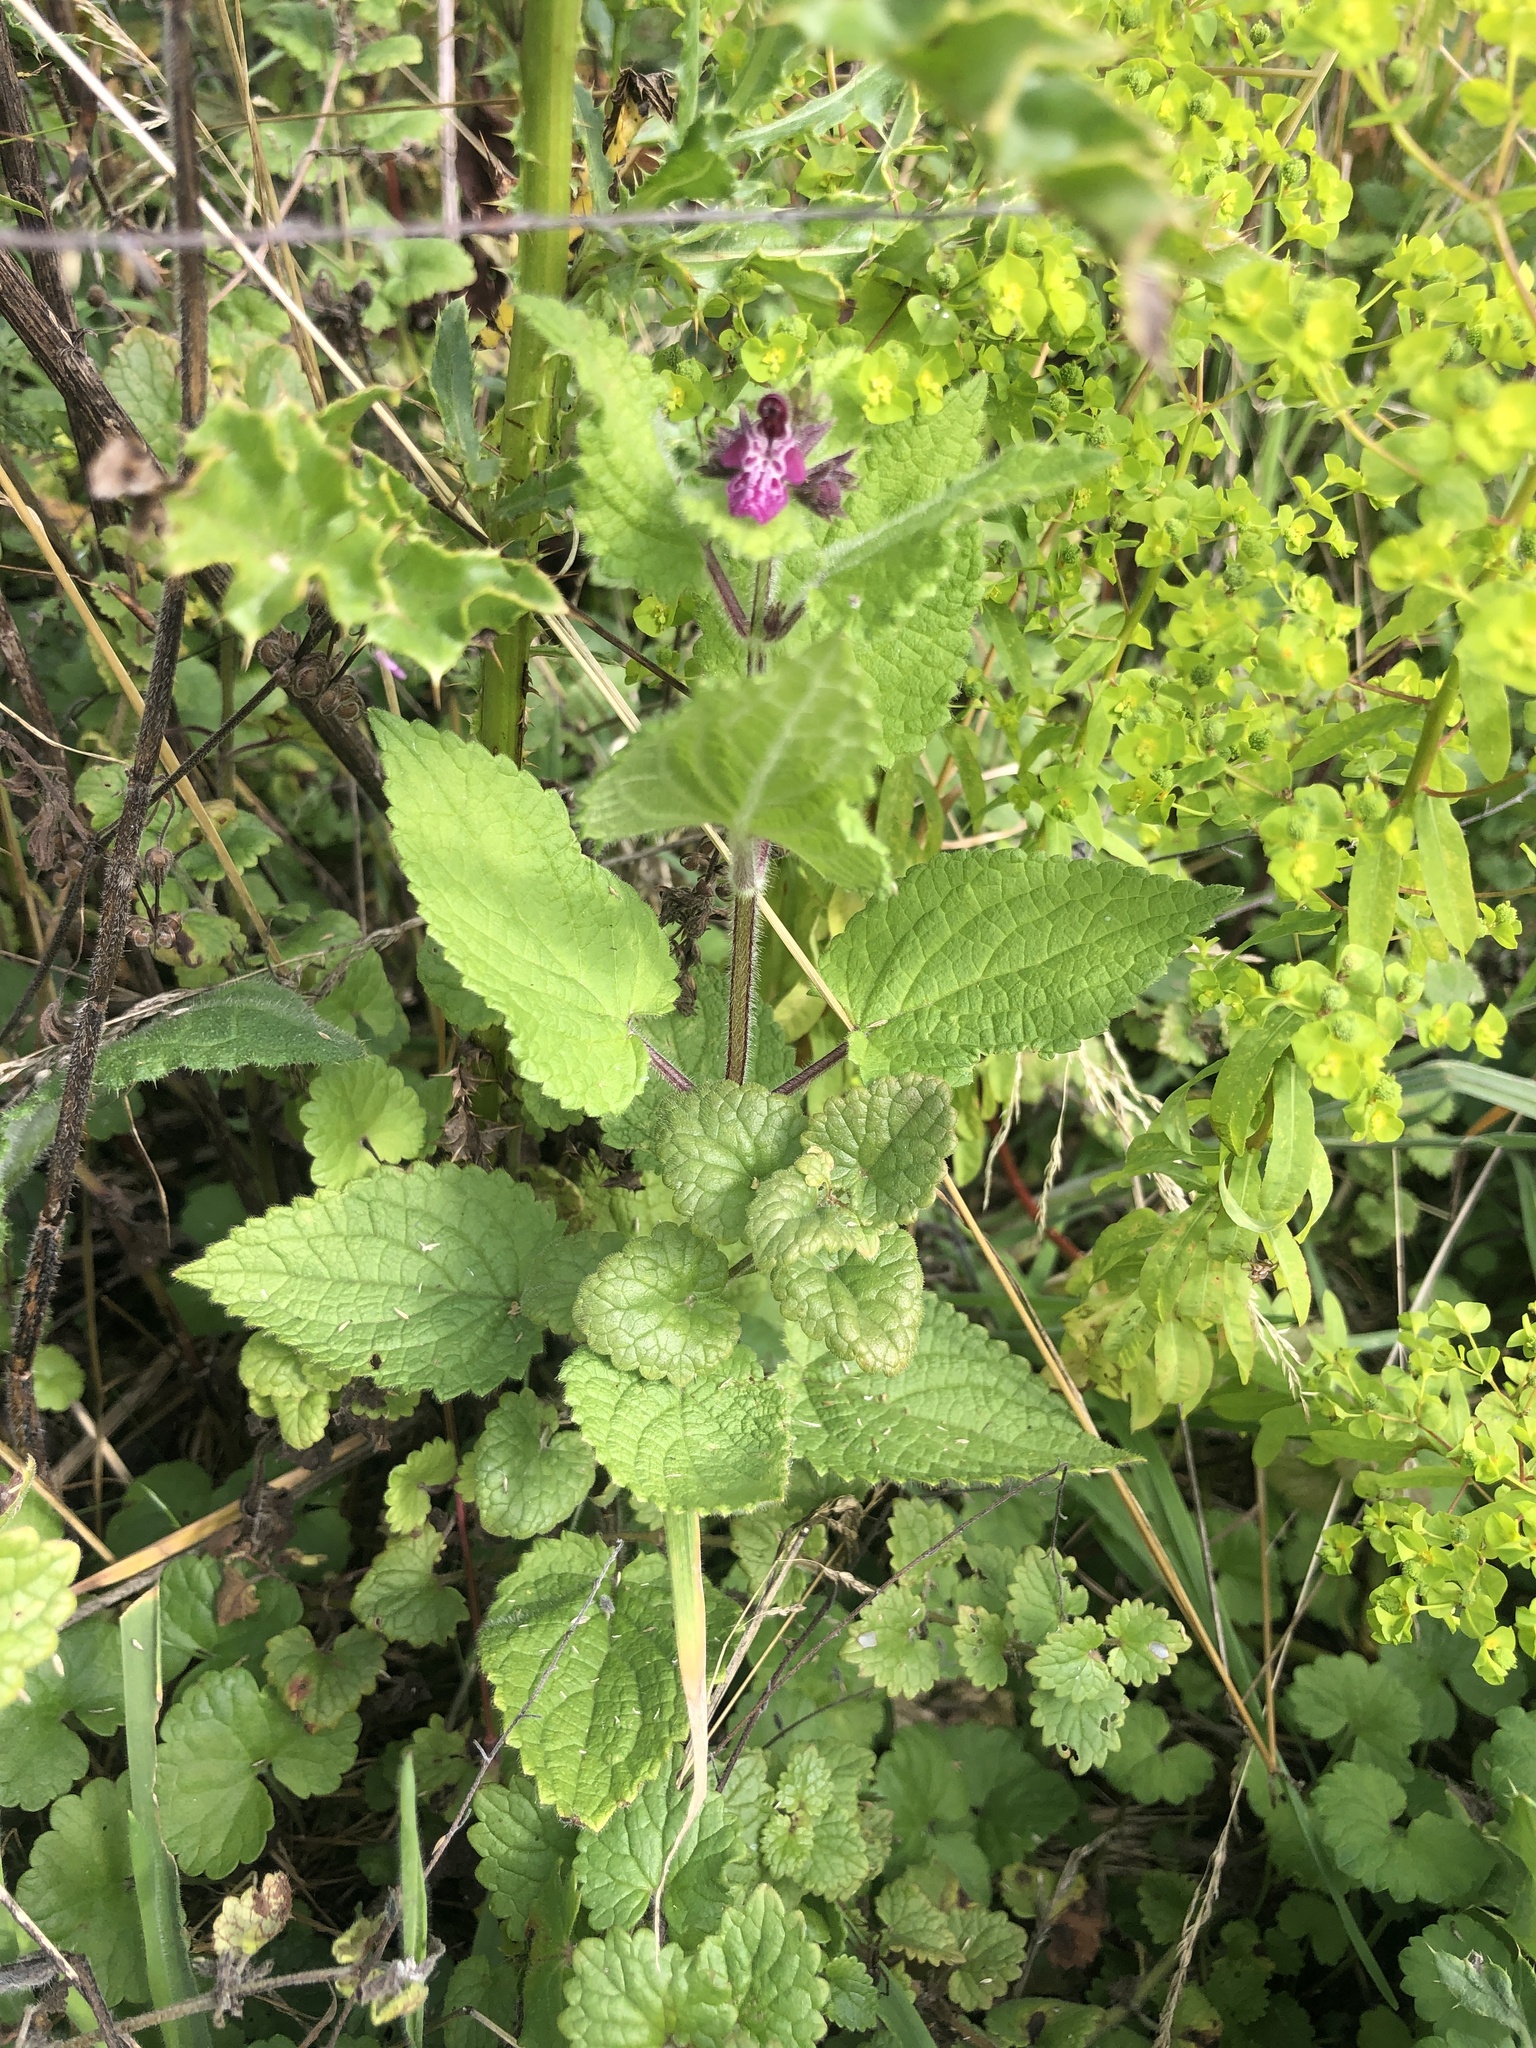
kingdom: Plantae
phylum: Tracheophyta
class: Magnoliopsida
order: Lamiales
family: Lamiaceae
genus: Stachys
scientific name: Stachys sylvatica
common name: Hedge woundwort
